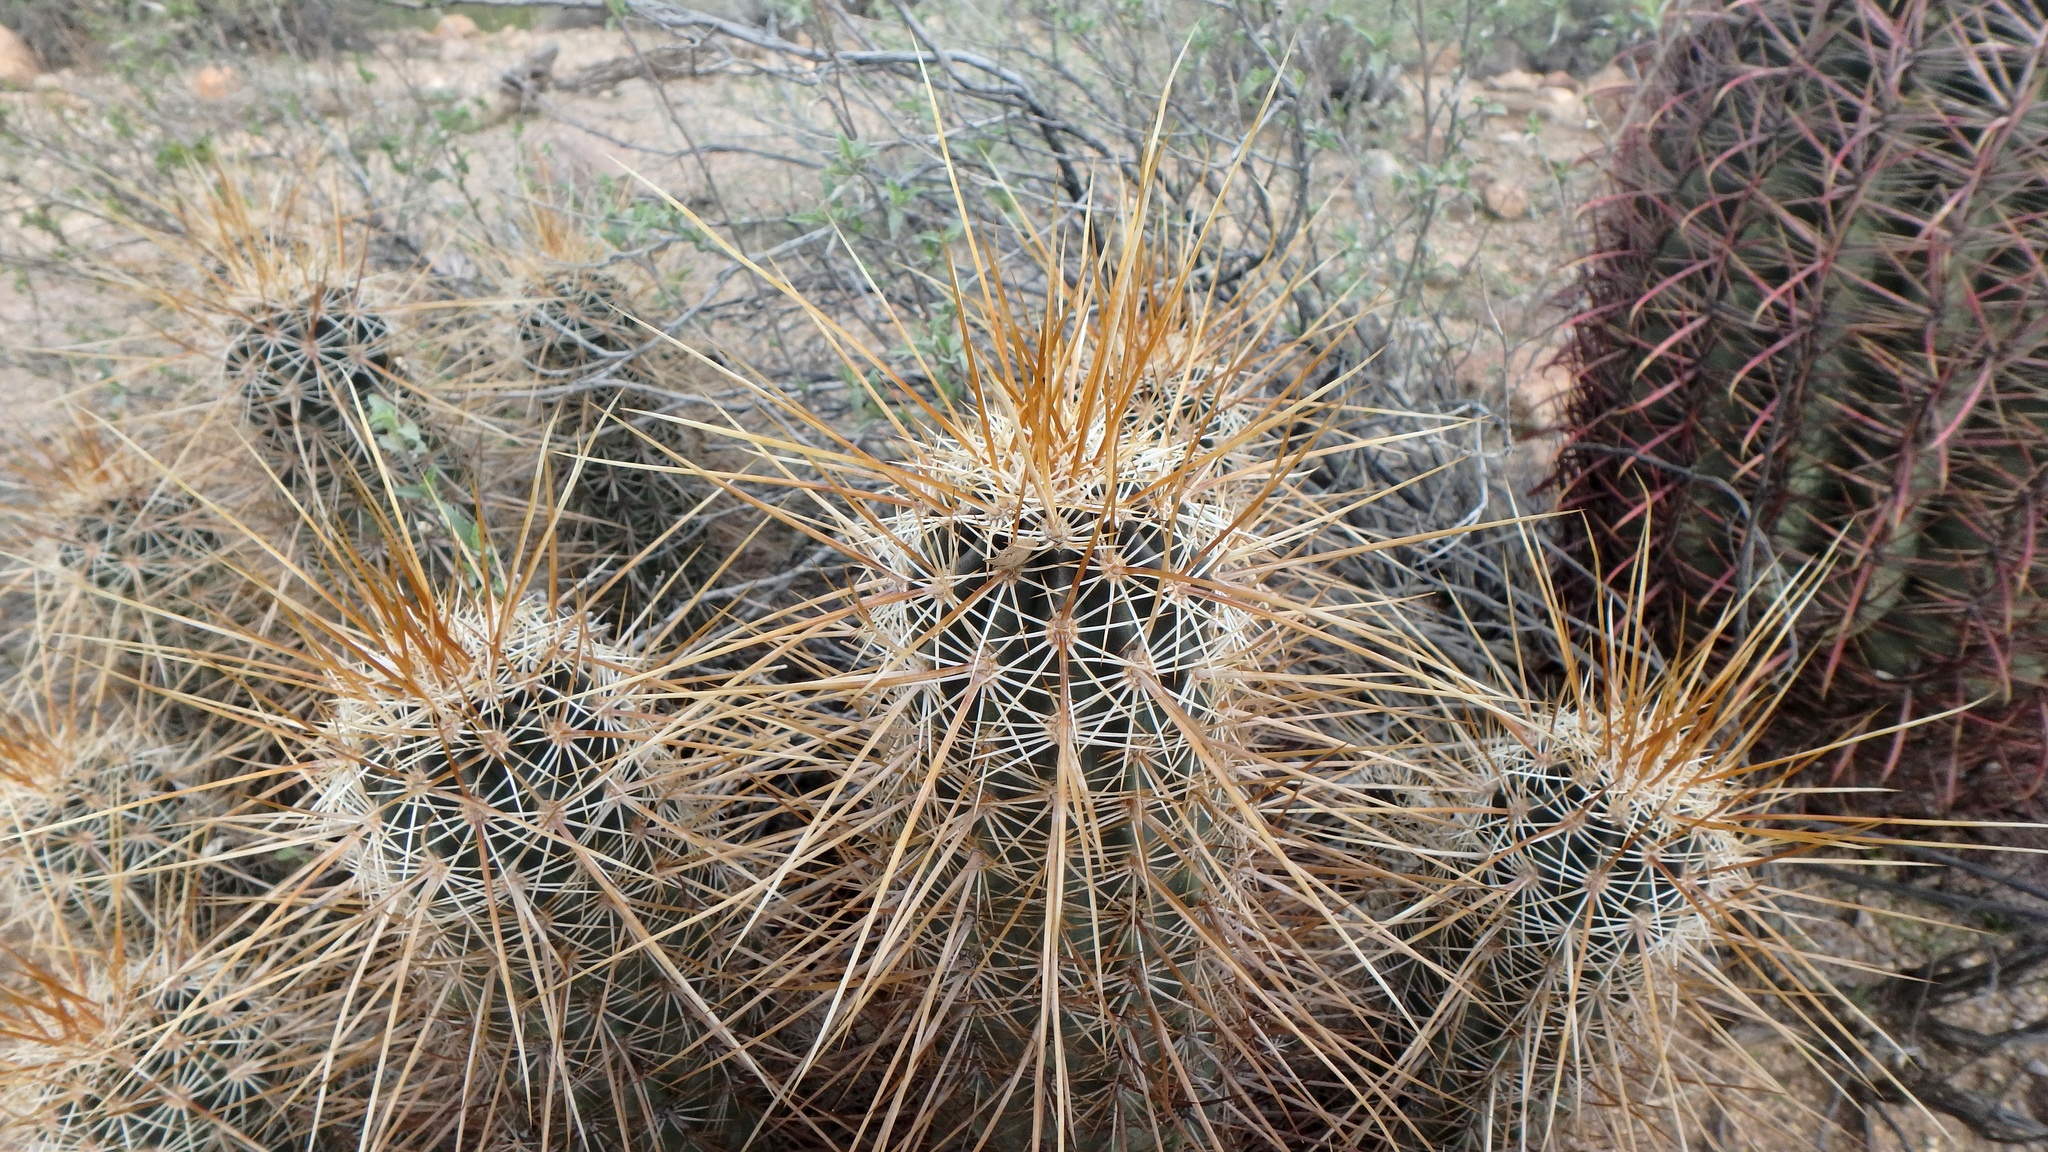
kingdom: Plantae
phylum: Tracheophyta
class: Magnoliopsida
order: Caryophyllales
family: Cactaceae
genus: Echinocereus
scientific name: Echinocereus engelmannii
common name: Engelmann's hedgehog cactus
